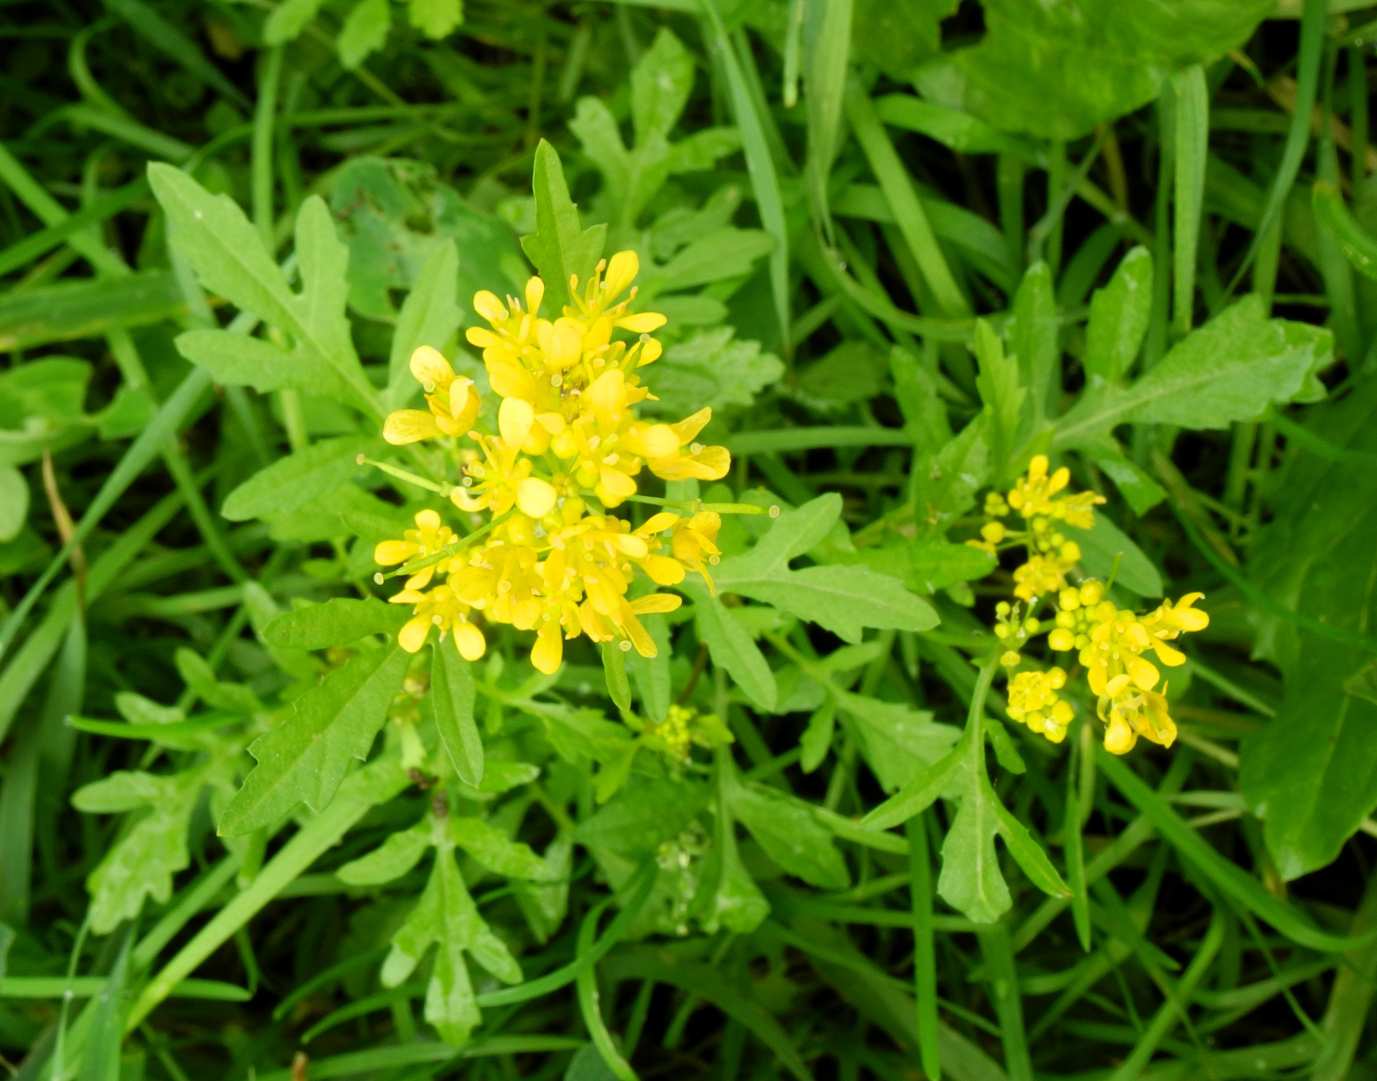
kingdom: Plantae
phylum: Tracheophyta
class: Magnoliopsida
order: Brassicales
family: Brassicaceae
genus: Rorippa
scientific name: Rorippa sylvestris
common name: Creeping yellowcress
